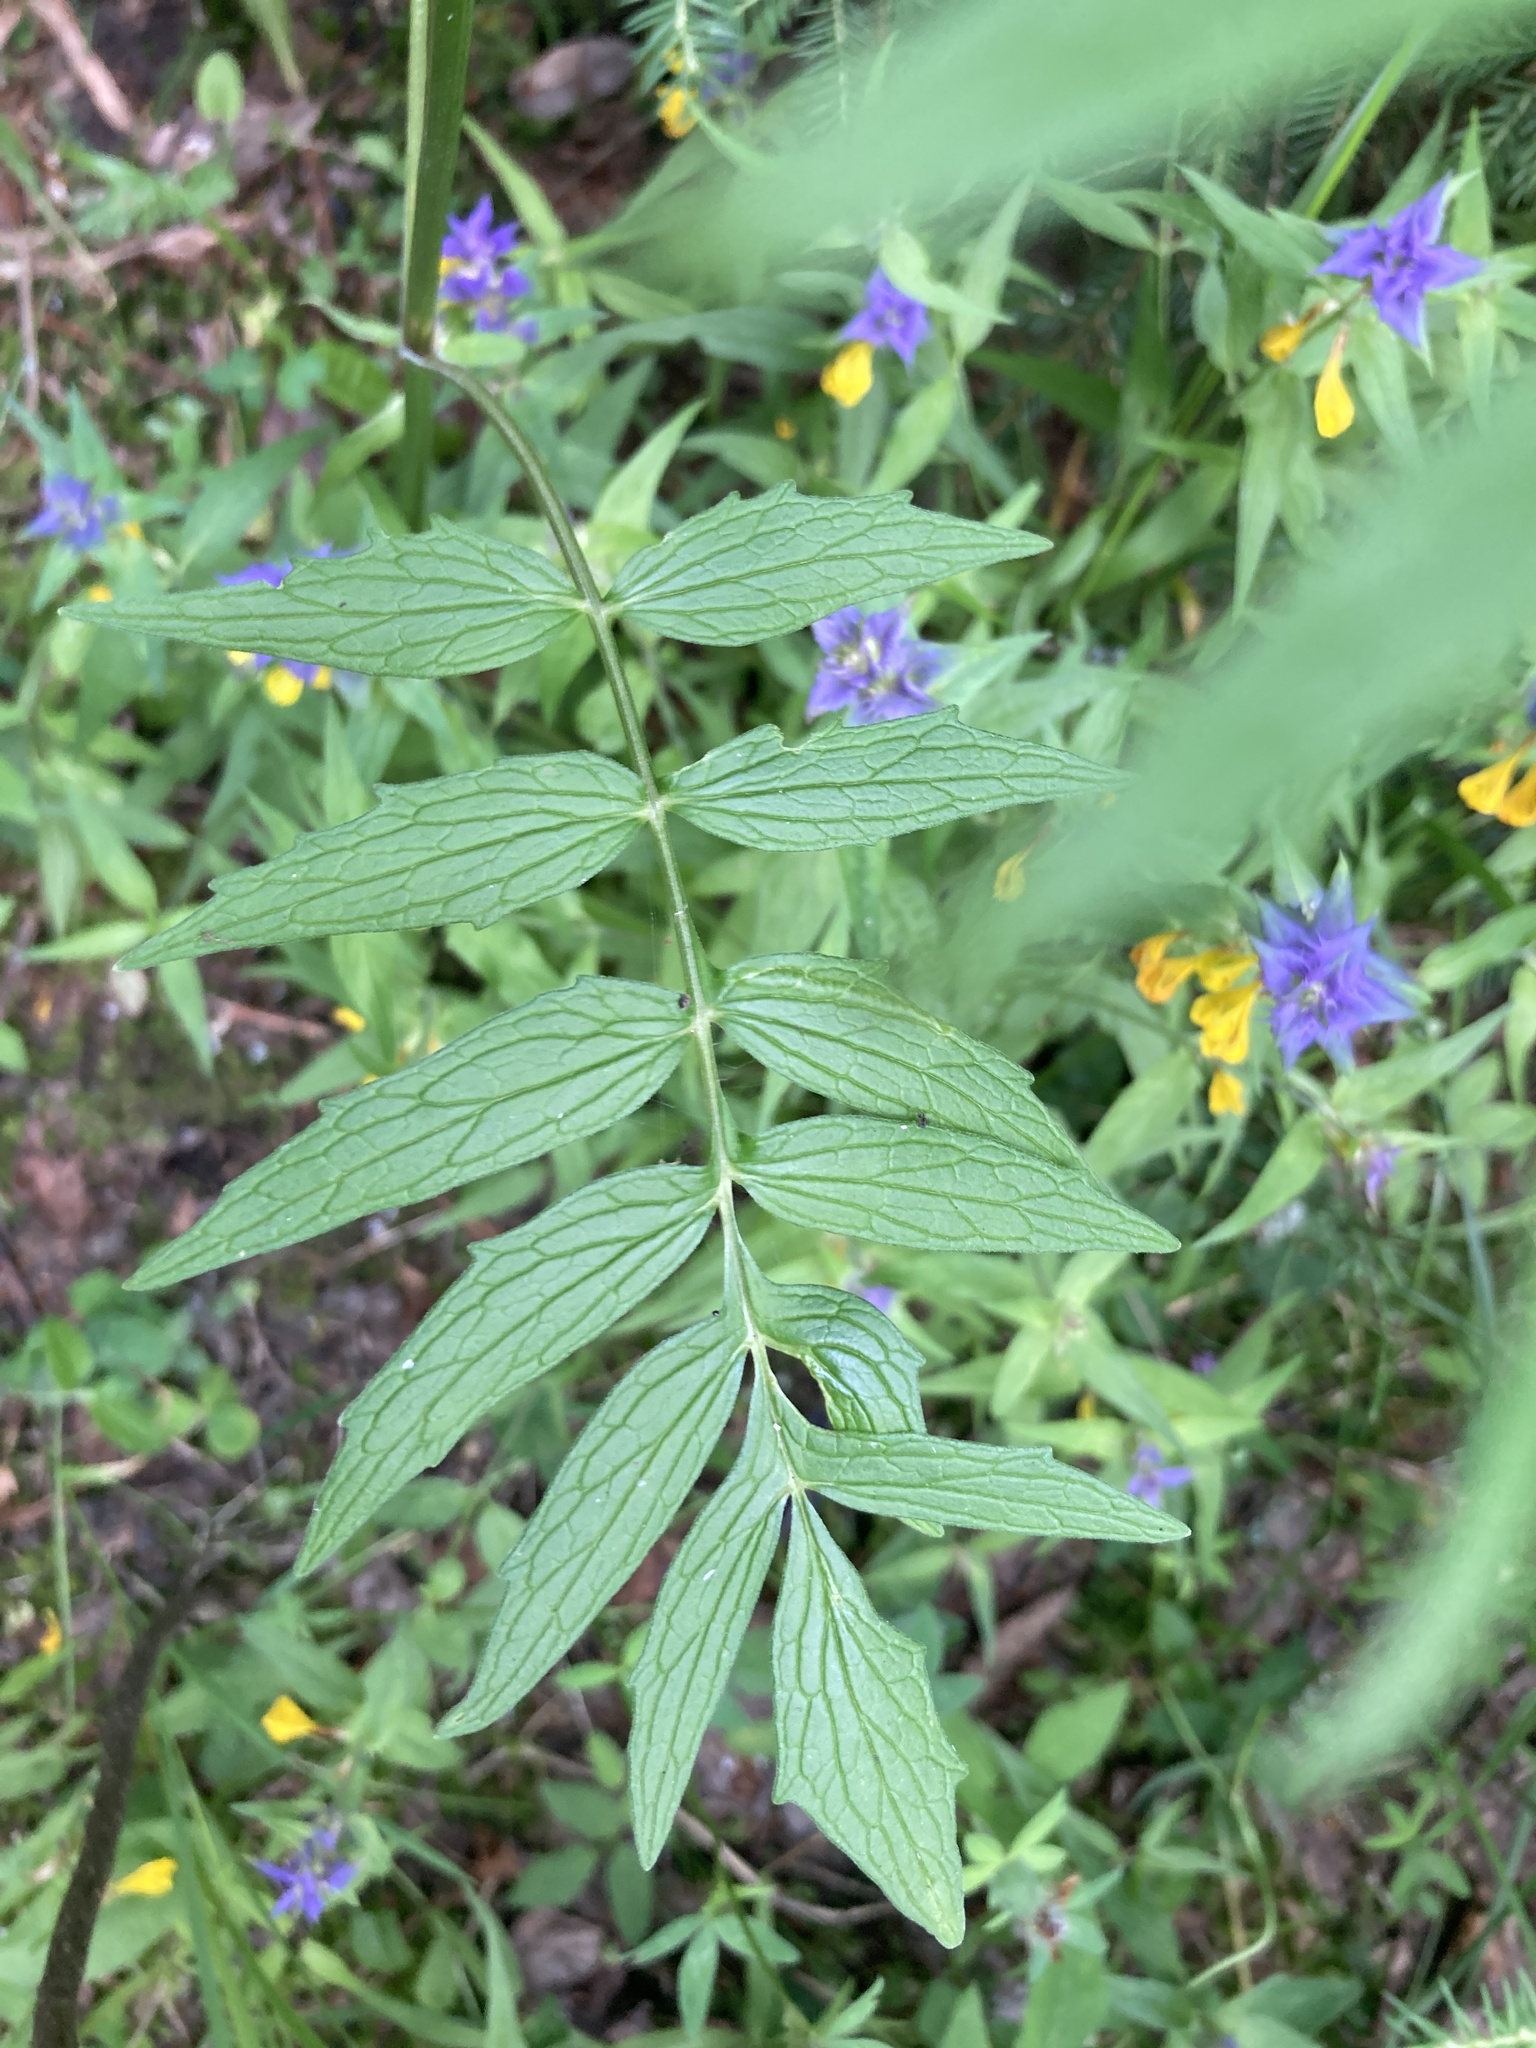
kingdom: Plantae
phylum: Tracheophyta
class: Magnoliopsida
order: Dipsacales
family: Caprifoliaceae
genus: Valeriana
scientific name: Valeriana officinalis
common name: Common valerian
